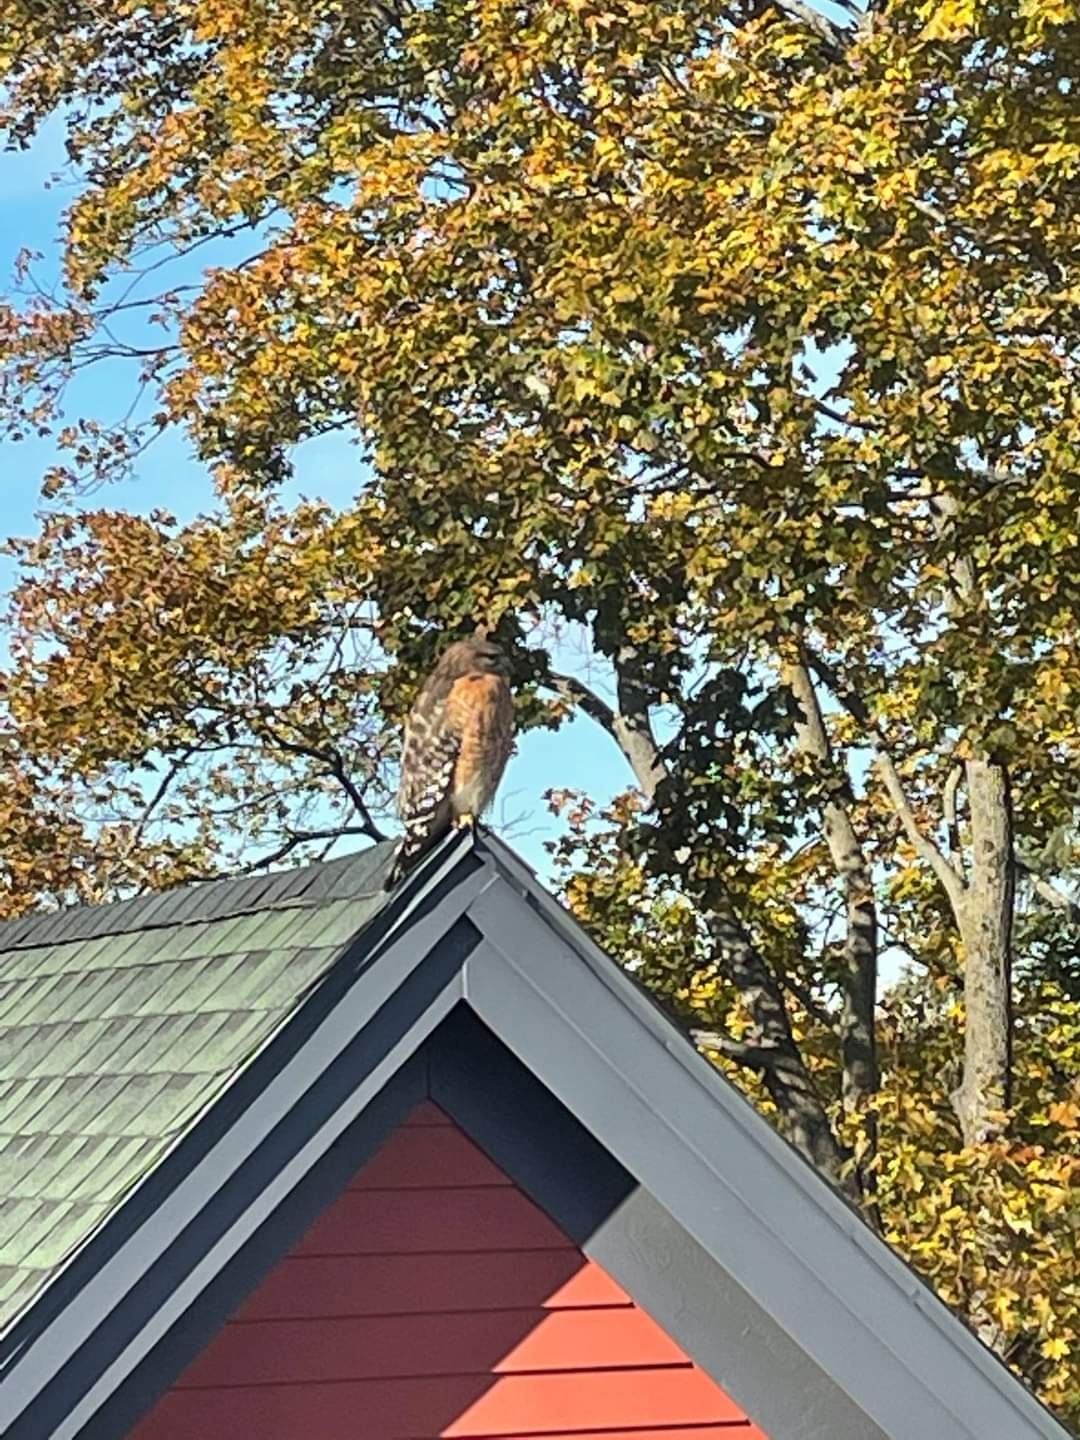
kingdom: Animalia
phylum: Chordata
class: Aves
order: Accipitriformes
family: Accipitridae
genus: Buteo
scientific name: Buteo lineatus
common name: Red-shouldered hawk
